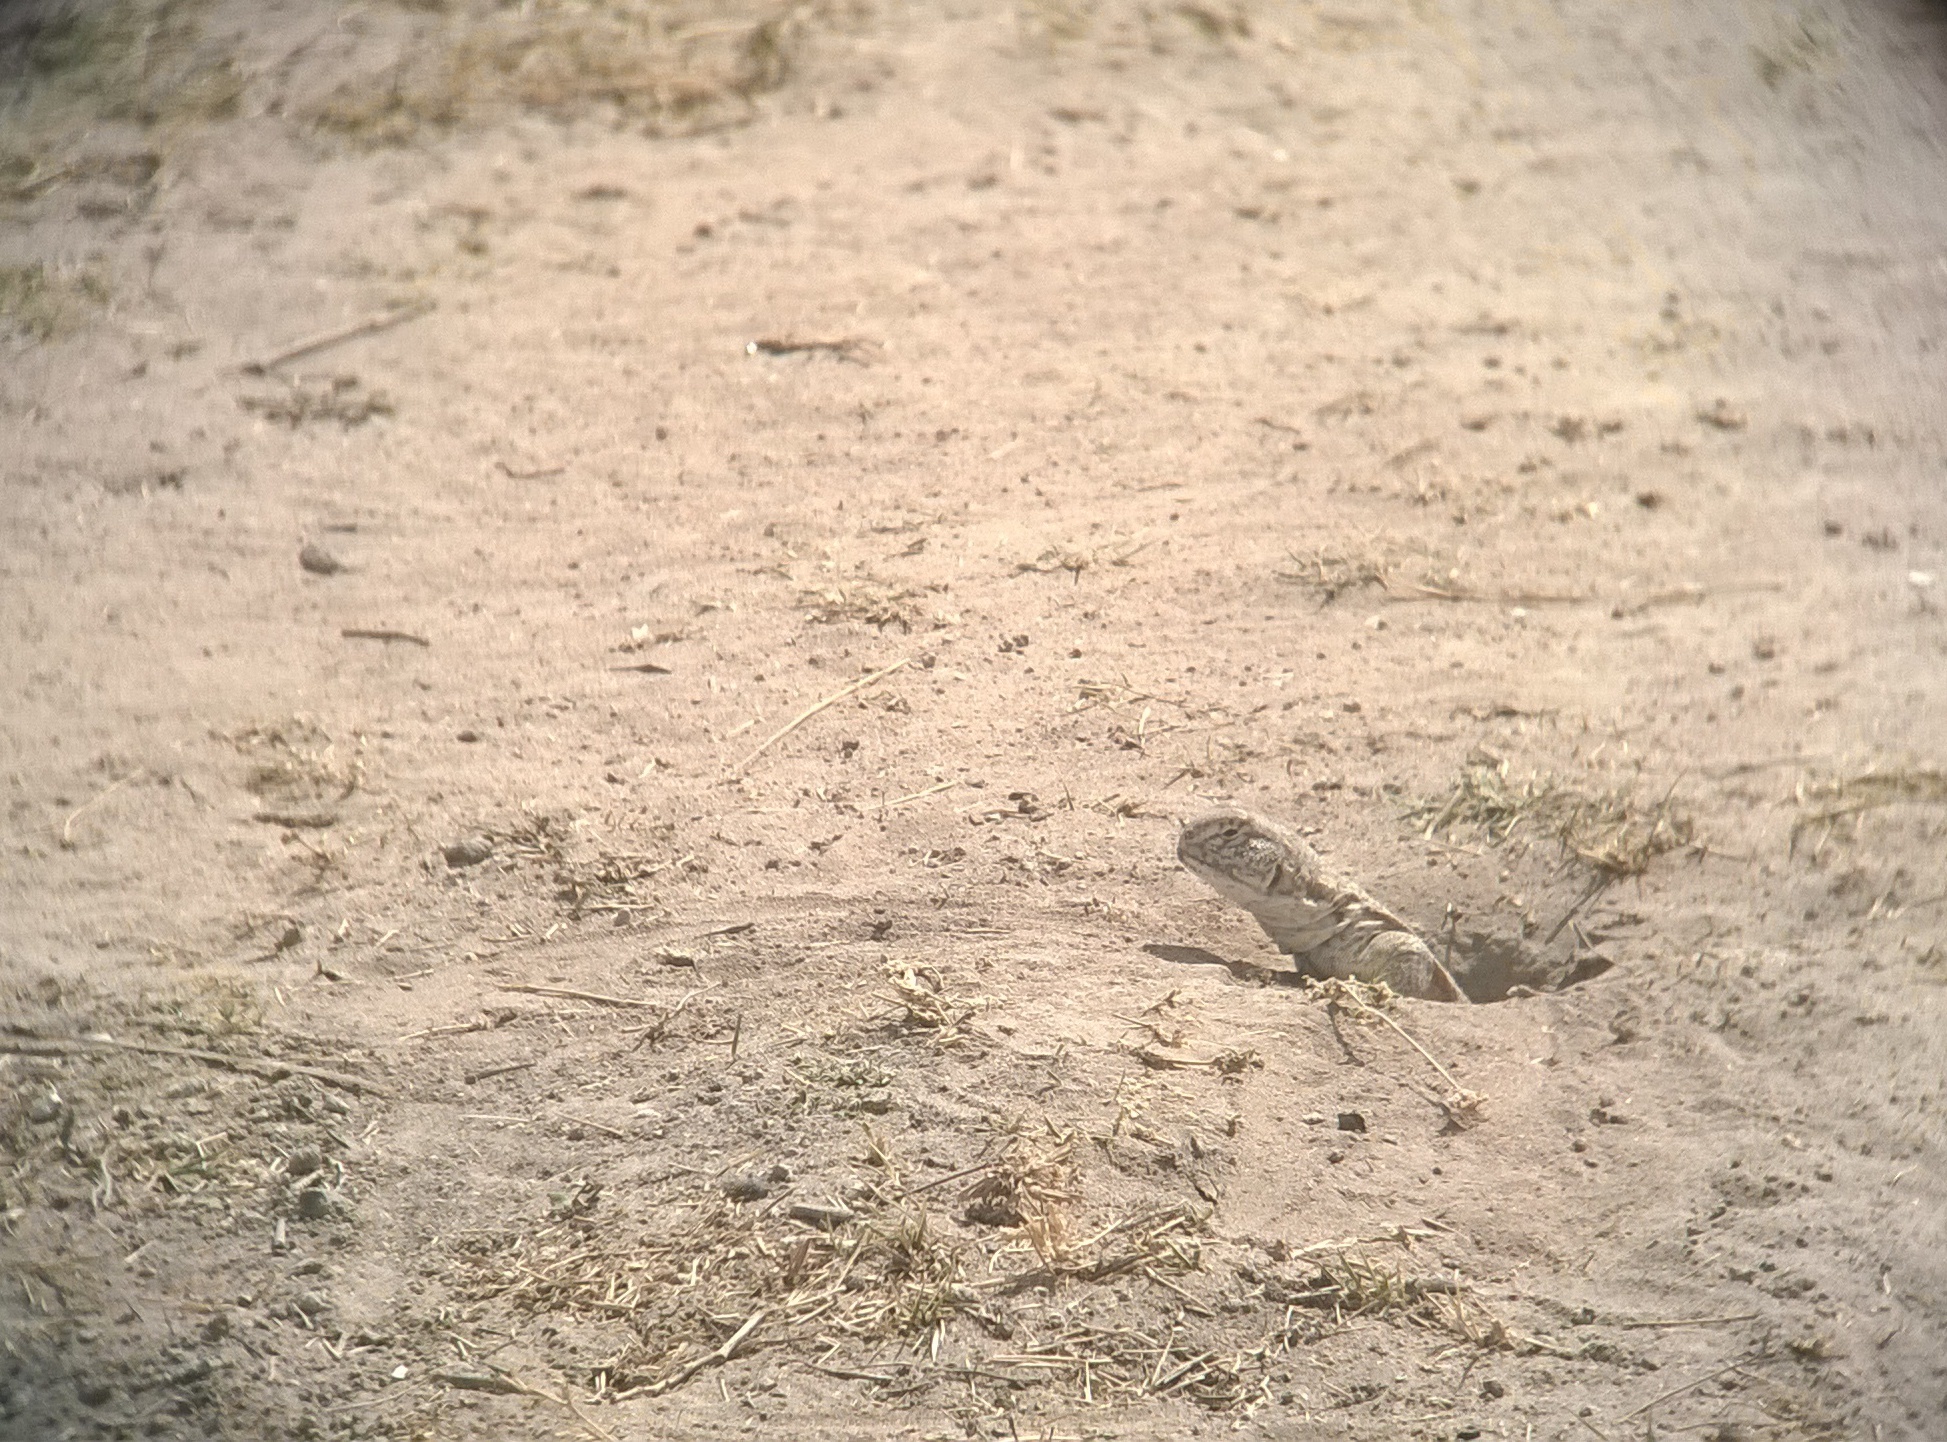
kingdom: Animalia
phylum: Chordata
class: Squamata
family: Agamidae
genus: Saara
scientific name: Saara hardwickii
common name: Hardwick's spiny-tailed lizard
